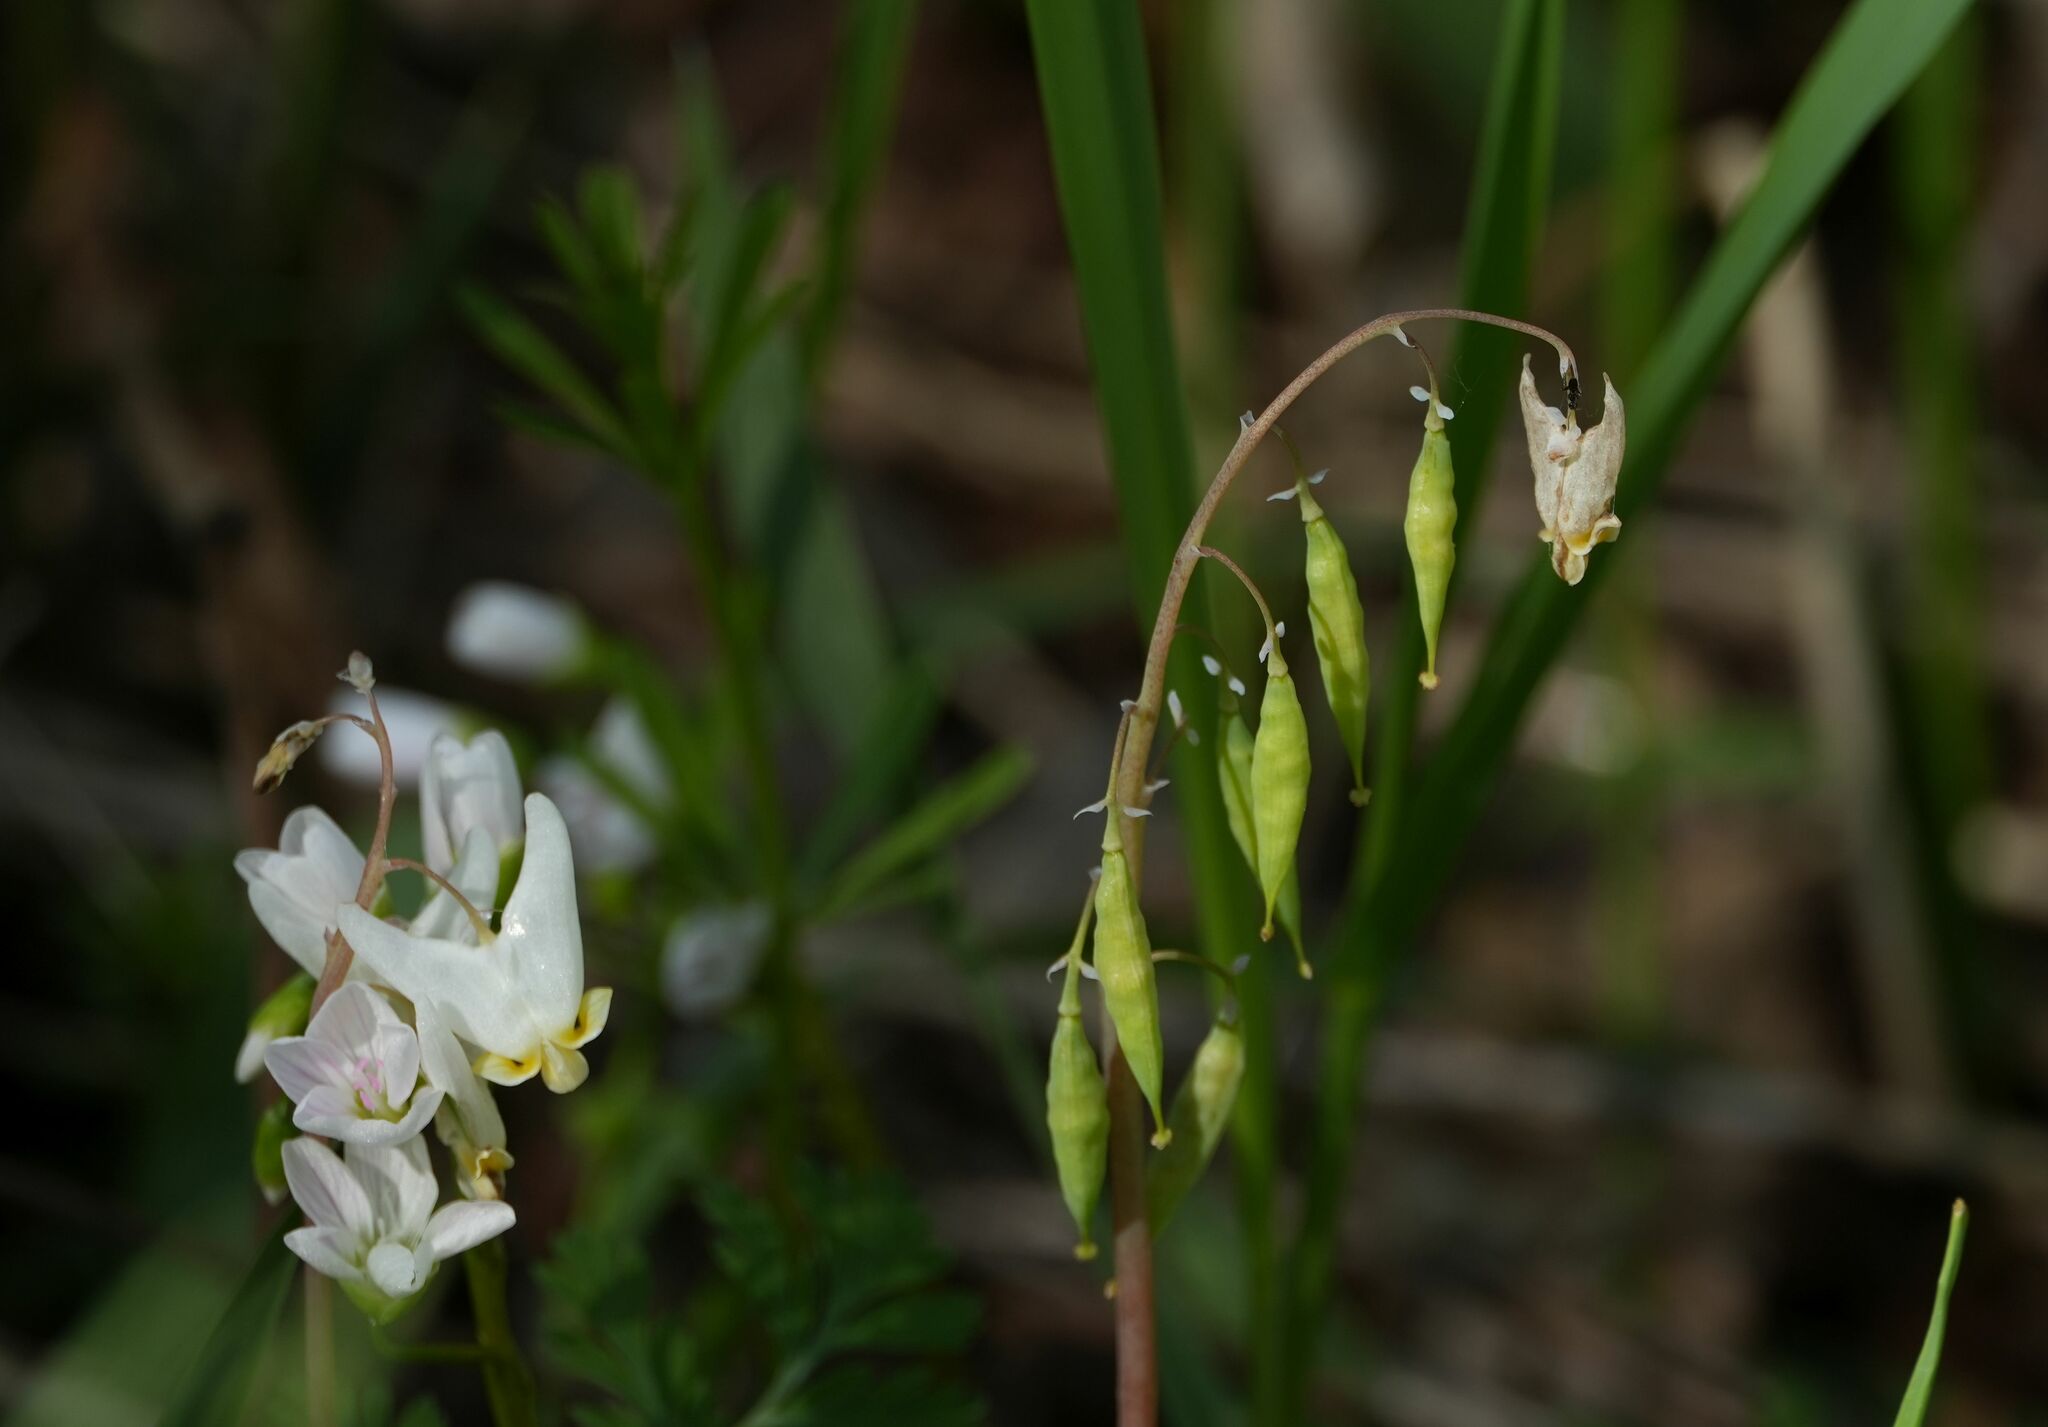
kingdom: Plantae
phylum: Tracheophyta
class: Magnoliopsida
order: Ranunculales
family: Papaveraceae
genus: Dicentra
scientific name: Dicentra cucullaria
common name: Dutchman's breeches
